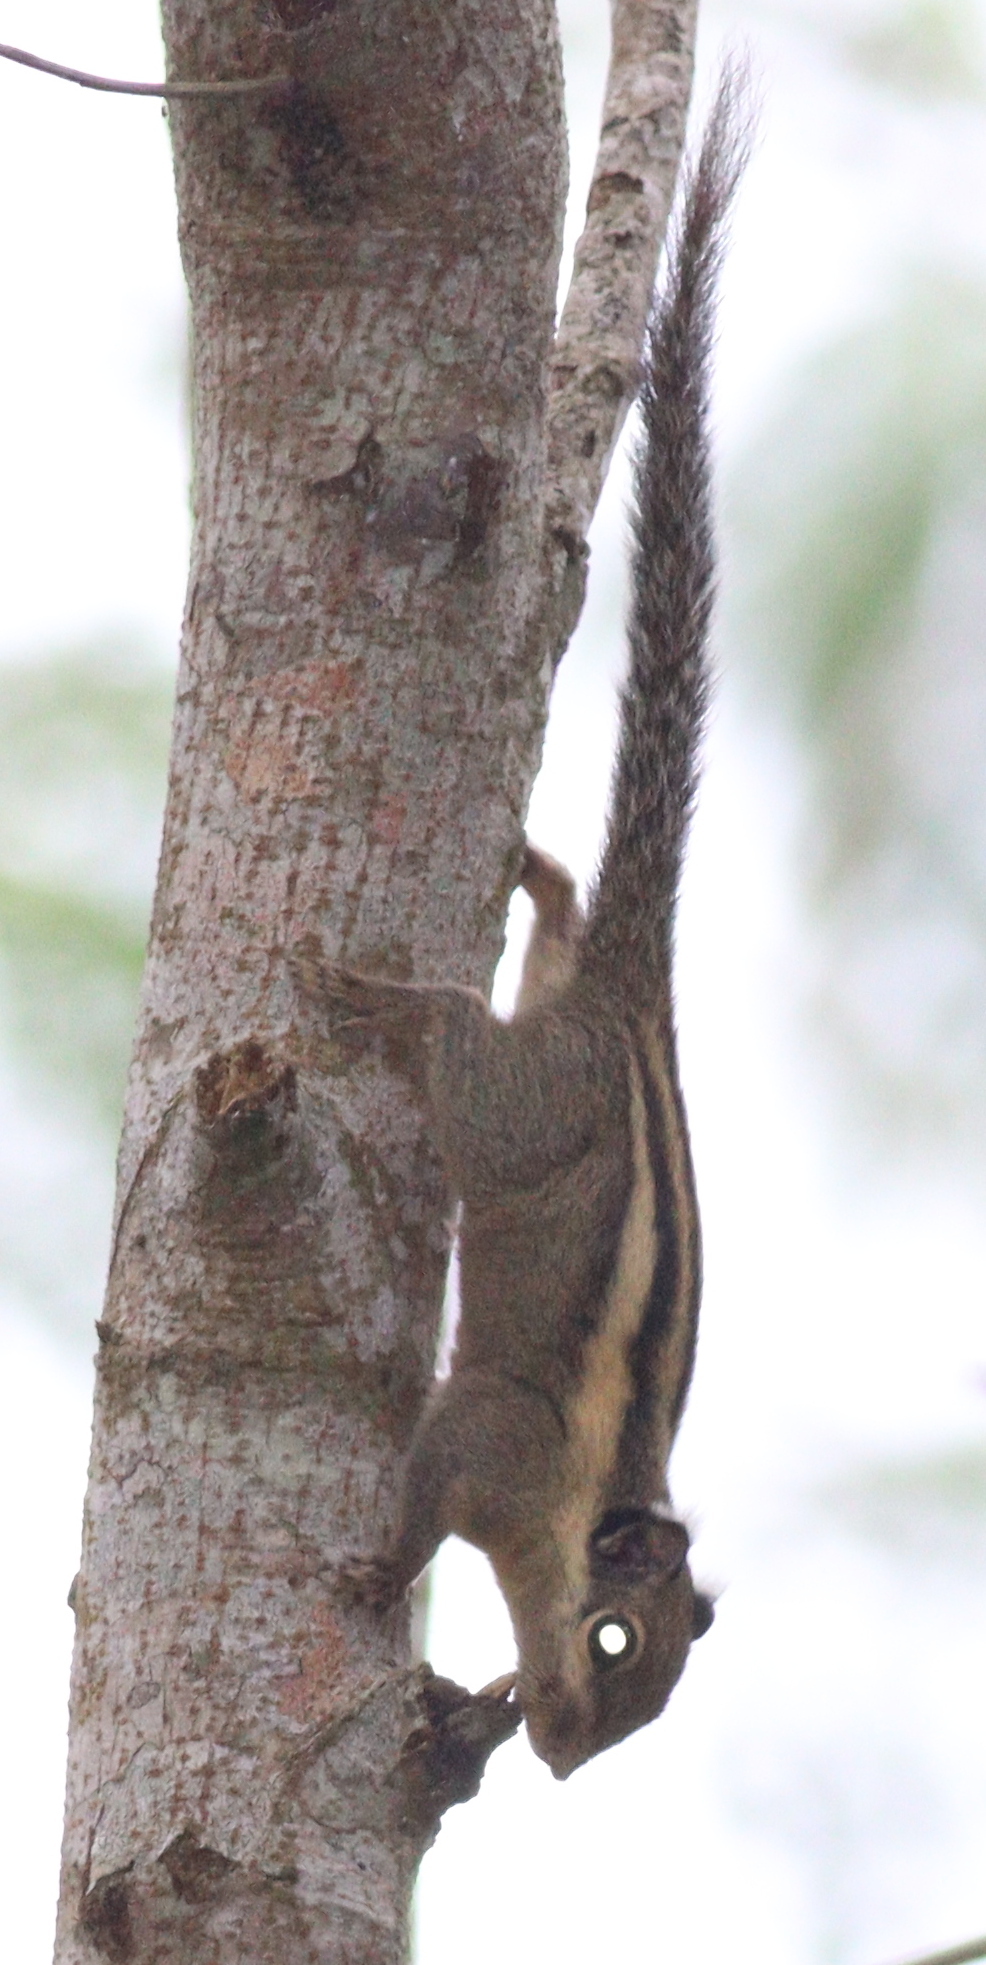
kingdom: Animalia
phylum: Chordata
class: Mammalia
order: Rodentia
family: Sciuridae
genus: Tamiops
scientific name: Tamiops mcclellandii
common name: Himalayan striped squirrel
